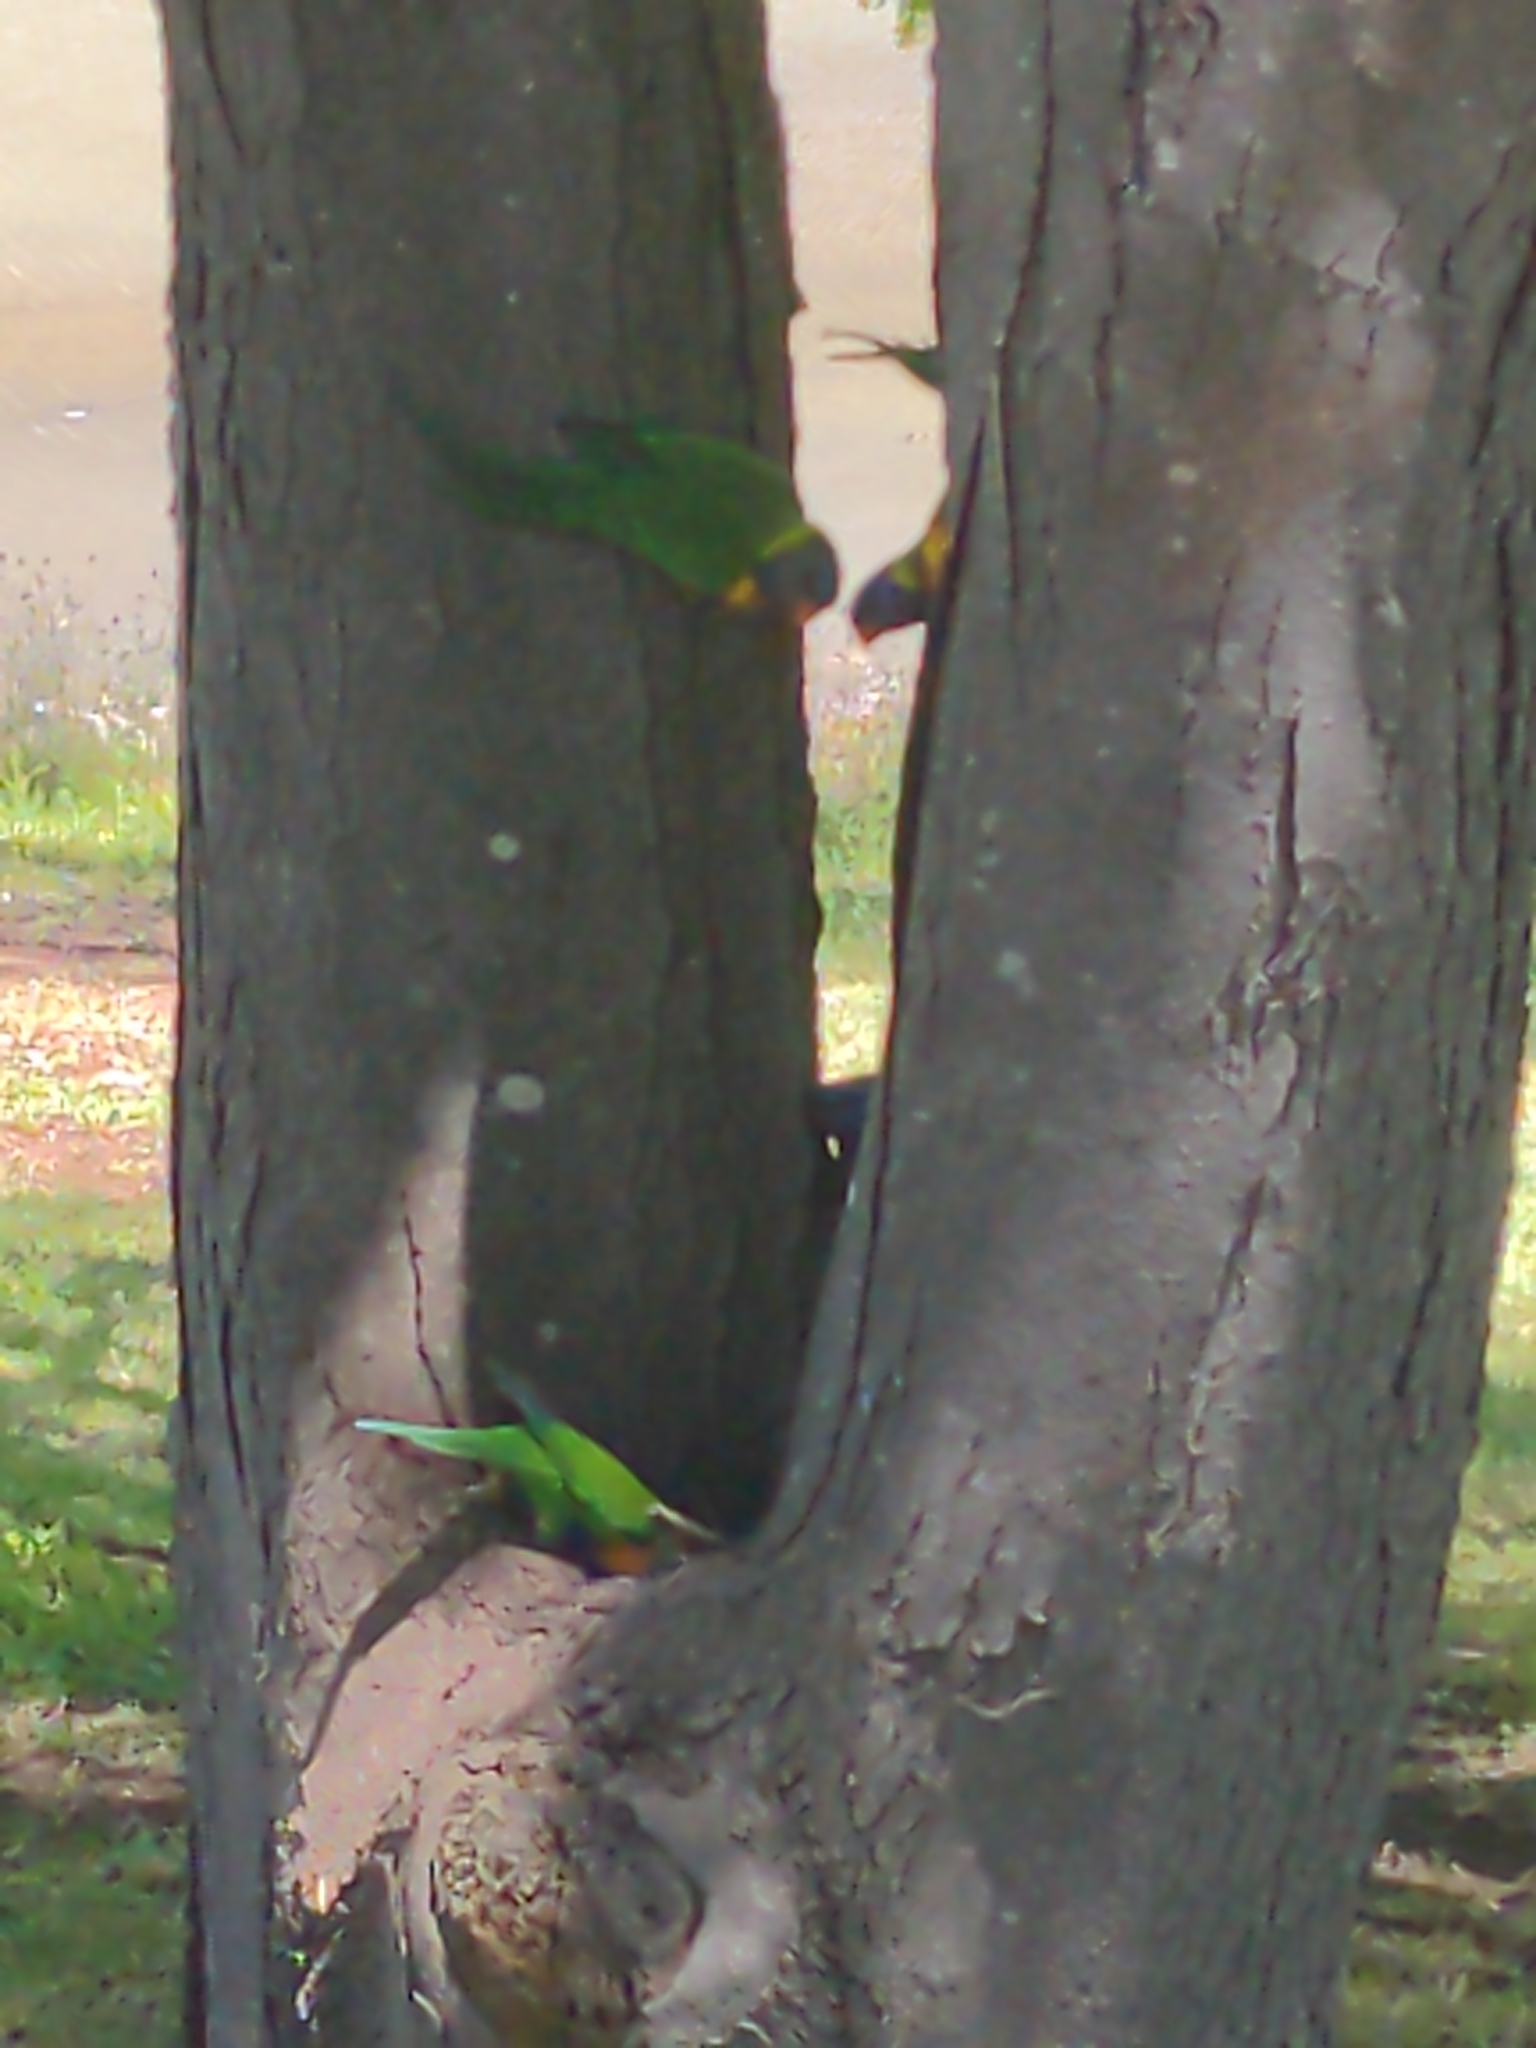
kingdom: Animalia
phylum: Chordata
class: Aves
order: Psittaciformes
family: Psittacidae
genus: Trichoglossus
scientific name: Trichoglossus haematodus
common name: Coconut lorikeet
